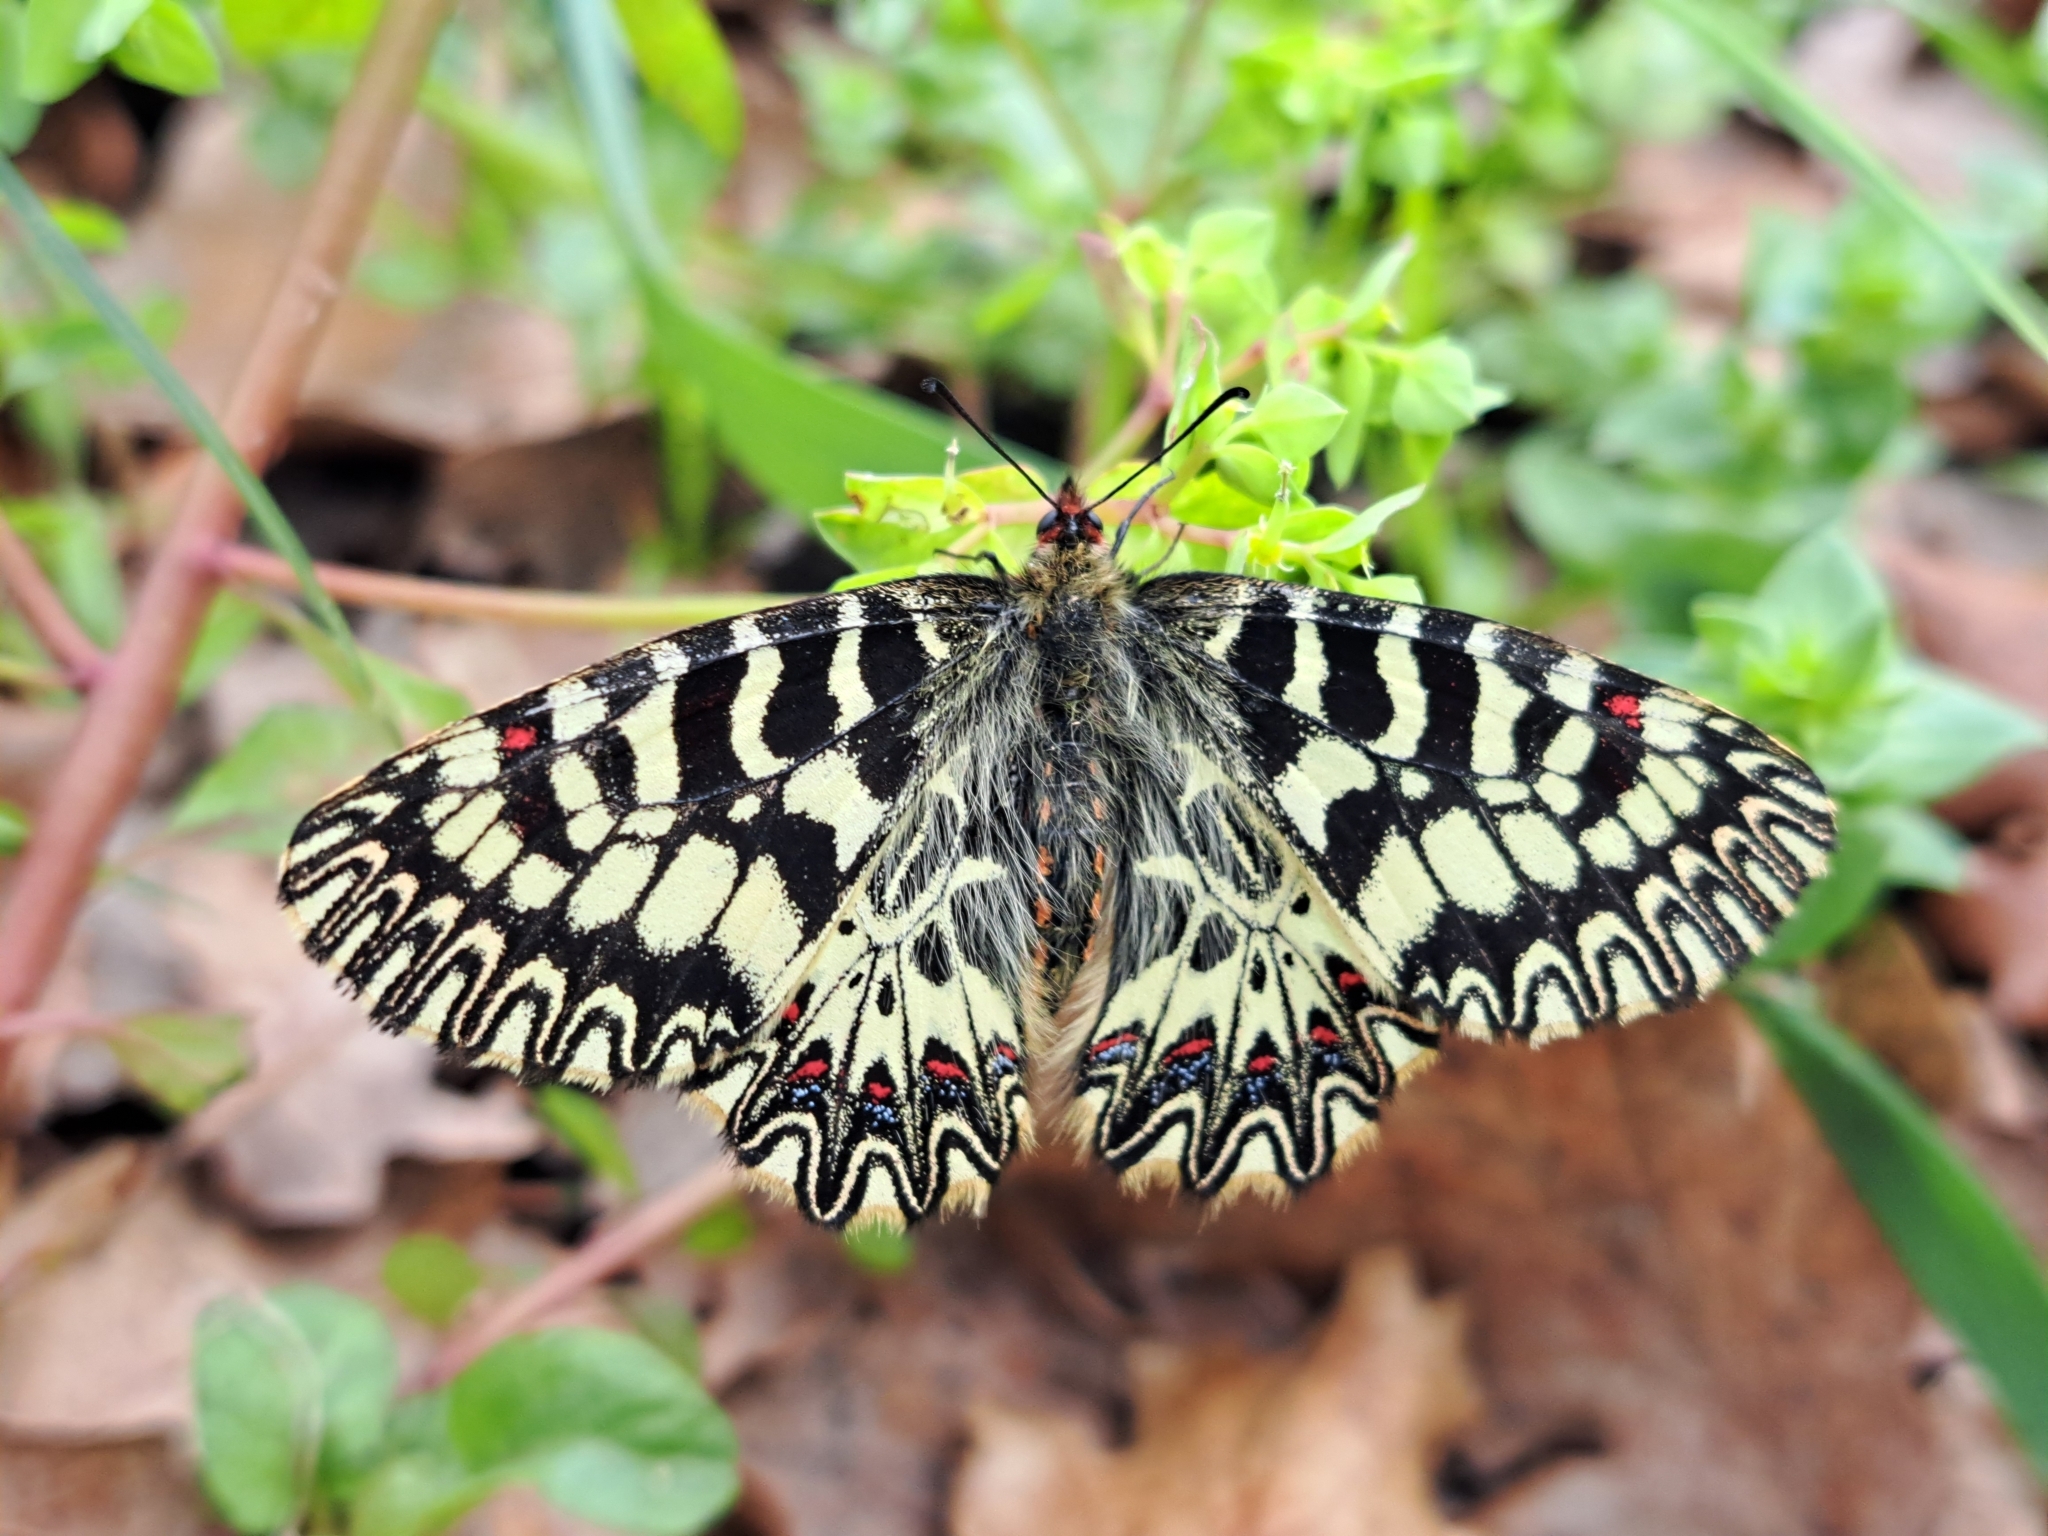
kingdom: Animalia
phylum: Arthropoda
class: Insecta
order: Lepidoptera
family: Papilionidae
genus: Zerynthia
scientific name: Zerynthia cassandra
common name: Italian festoon
